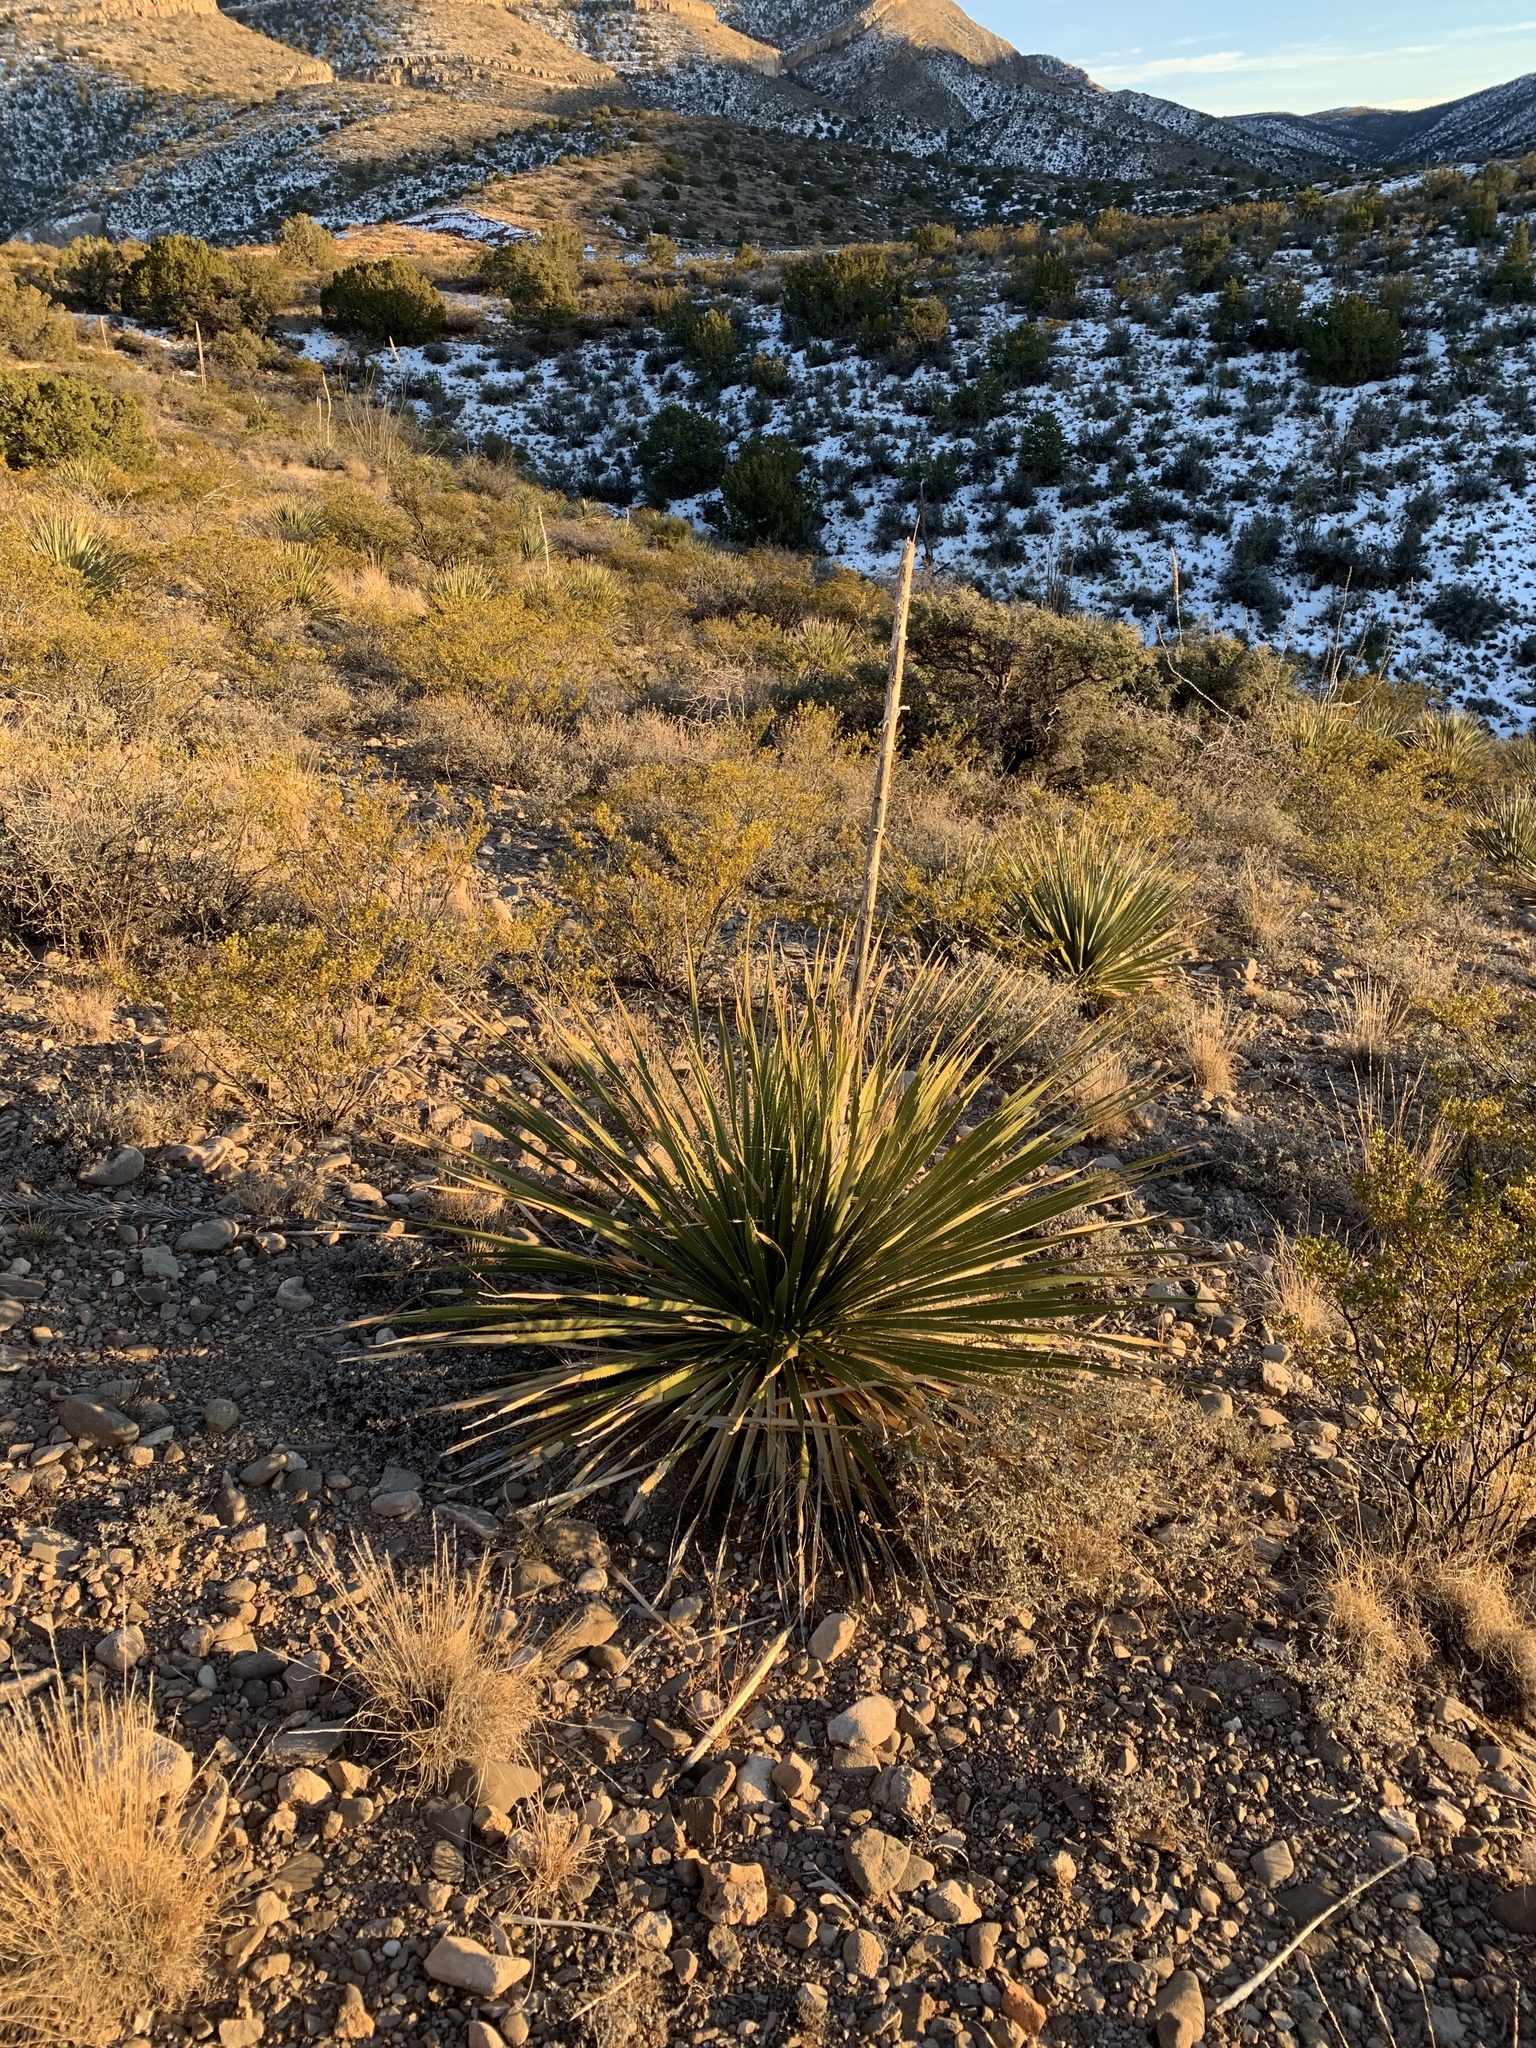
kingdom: Plantae
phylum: Tracheophyta
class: Liliopsida
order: Asparagales
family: Asparagaceae
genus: Dasylirion
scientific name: Dasylirion wheeleri
